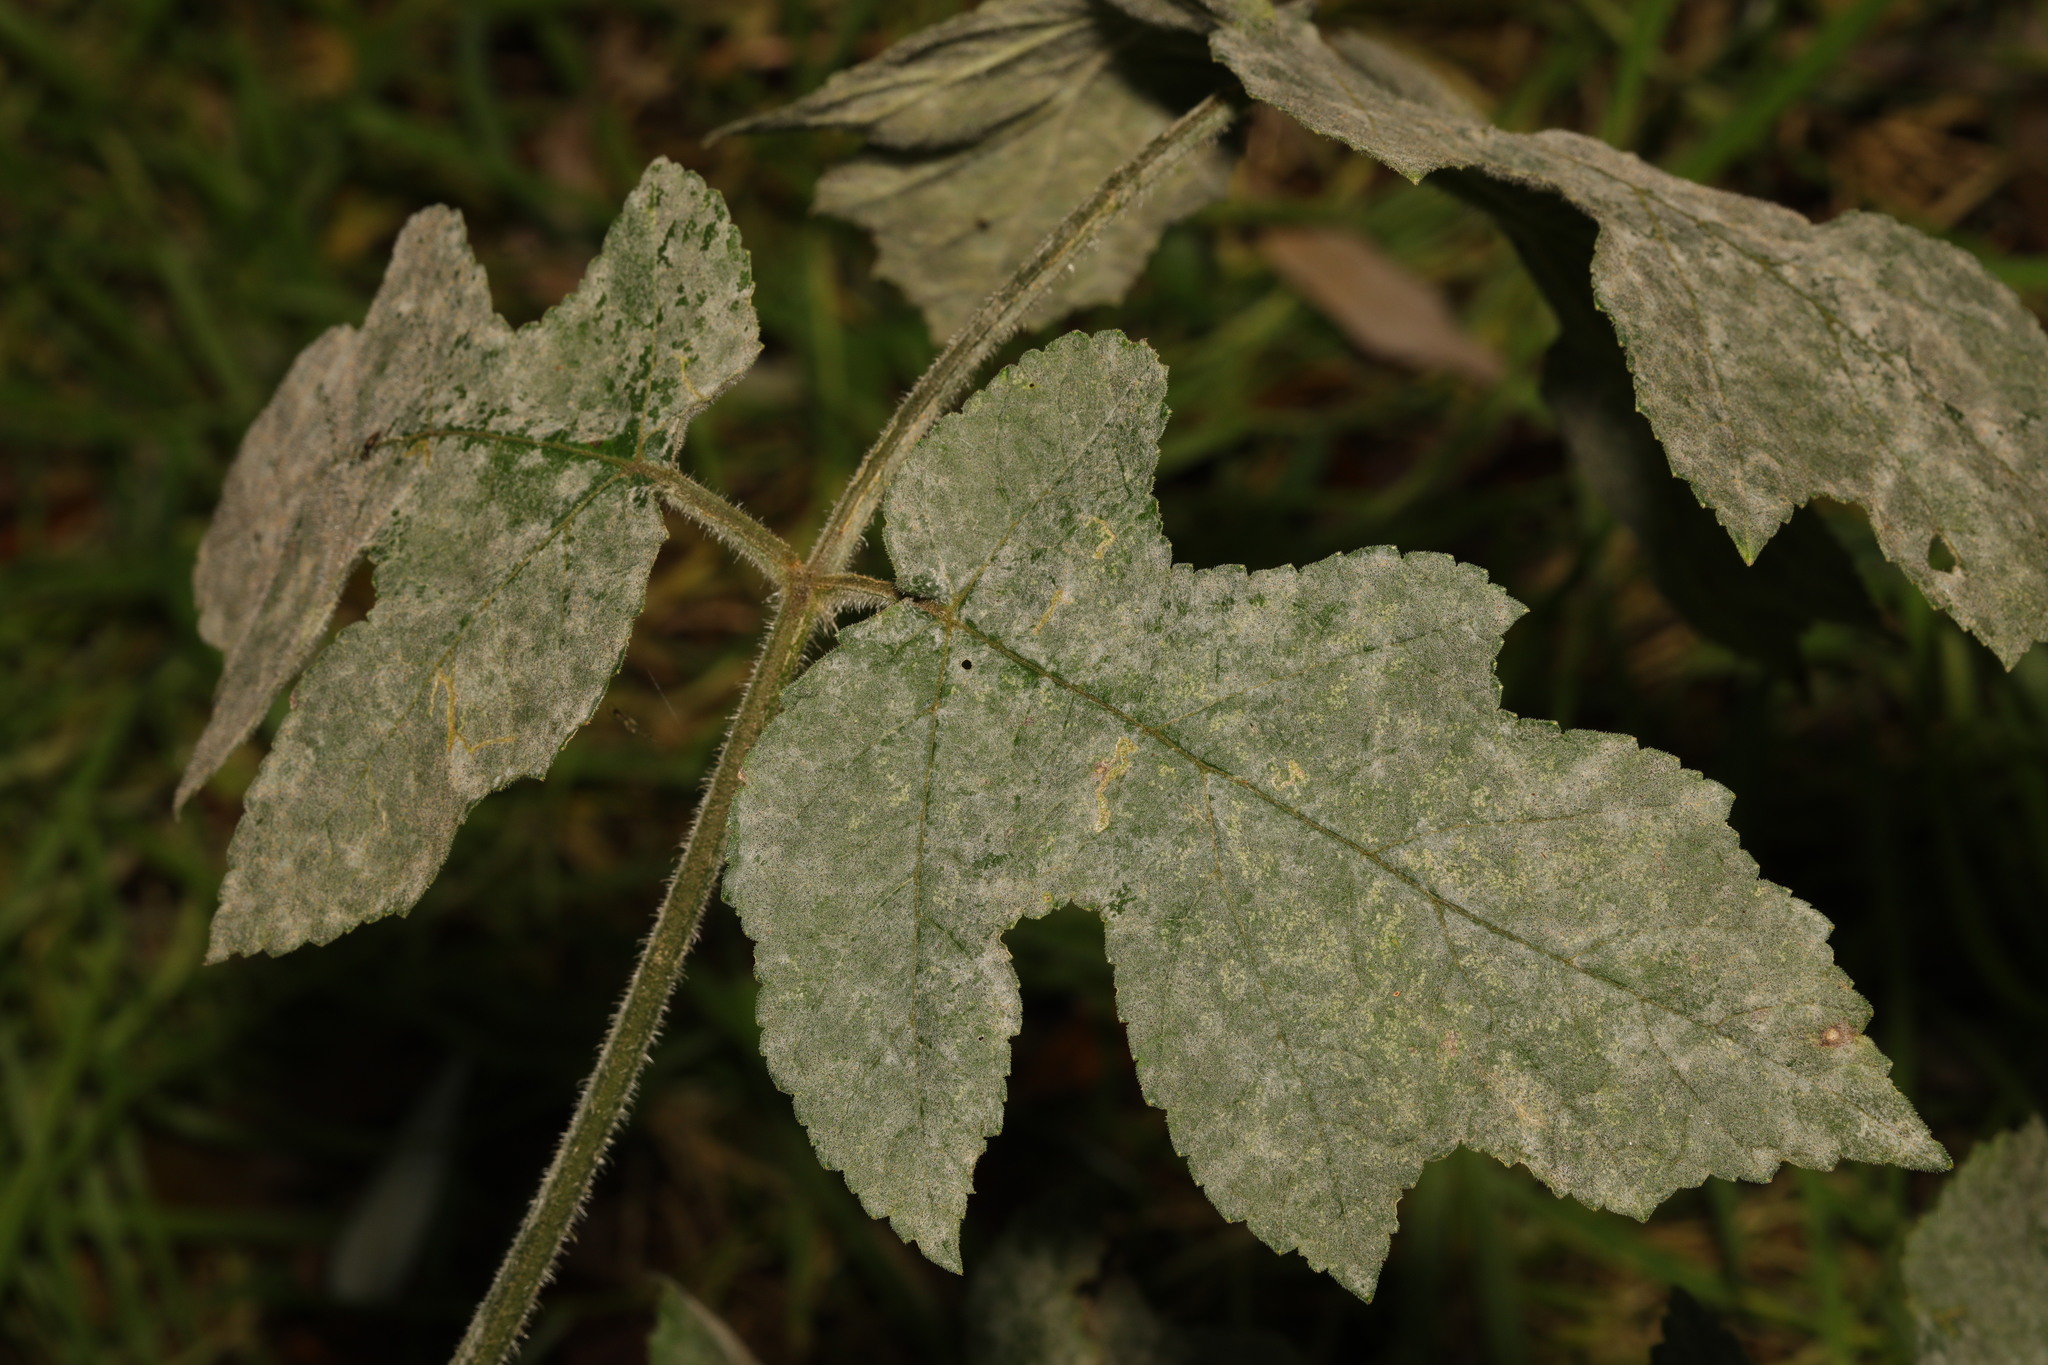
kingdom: Plantae
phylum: Tracheophyta
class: Magnoliopsida
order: Apiales
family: Apiaceae
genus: Heracleum
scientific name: Heracleum sphondylium
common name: Hogweed
